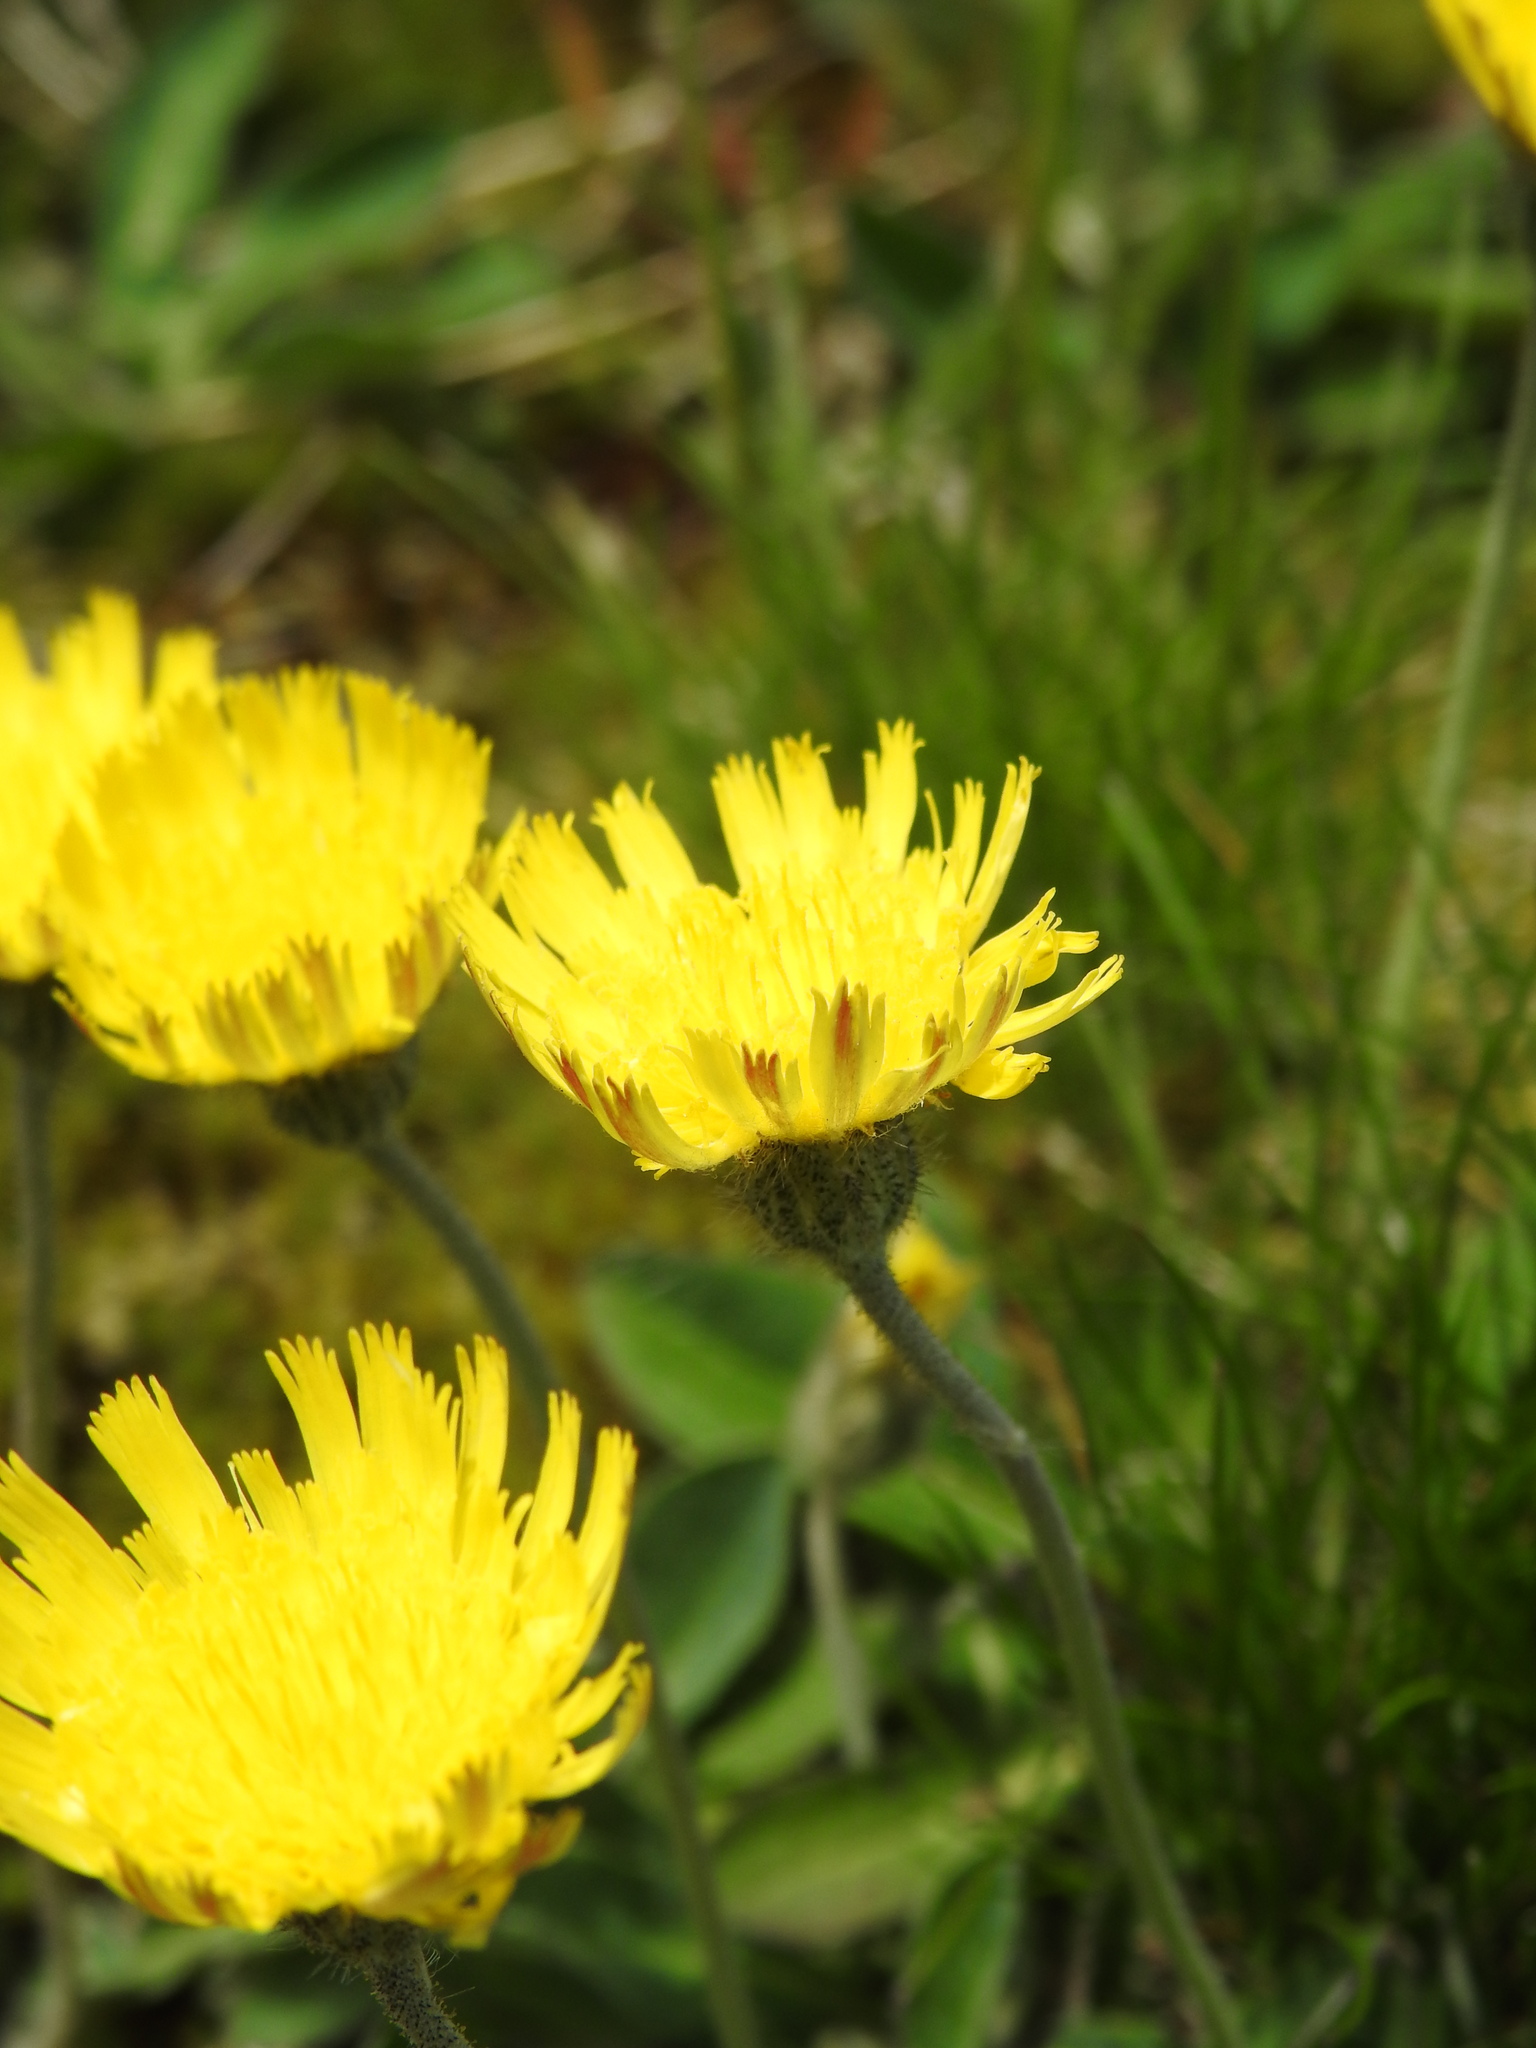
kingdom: Plantae
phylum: Tracheophyta
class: Magnoliopsida
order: Asterales
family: Asteraceae
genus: Pilosella
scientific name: Pilosella officinarum
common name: Mouse-ear hawkweed
